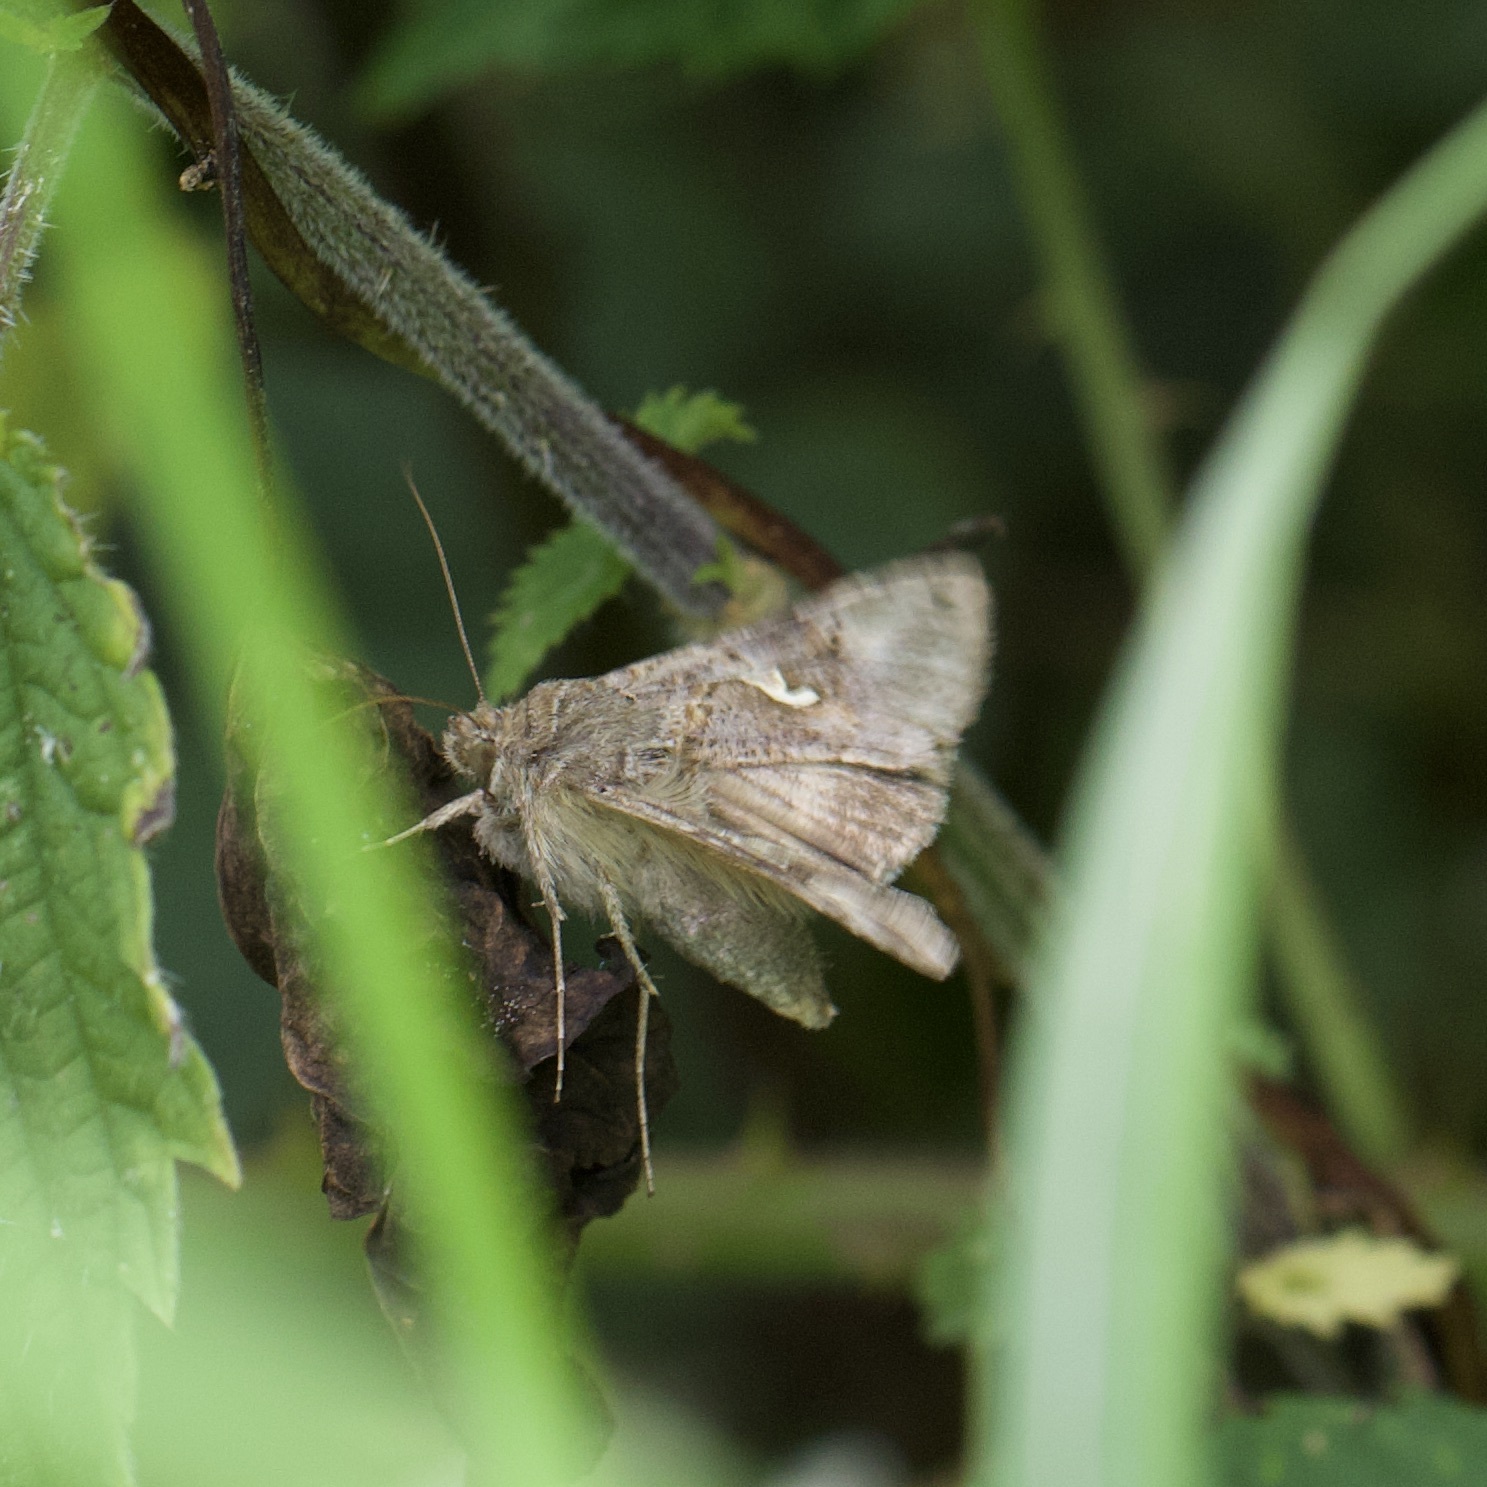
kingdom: Animalia
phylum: Arthropoda
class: Insecta
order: Lepidoptera
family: Noctuidae
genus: Autographa
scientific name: Autographa gamma
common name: Silver y
